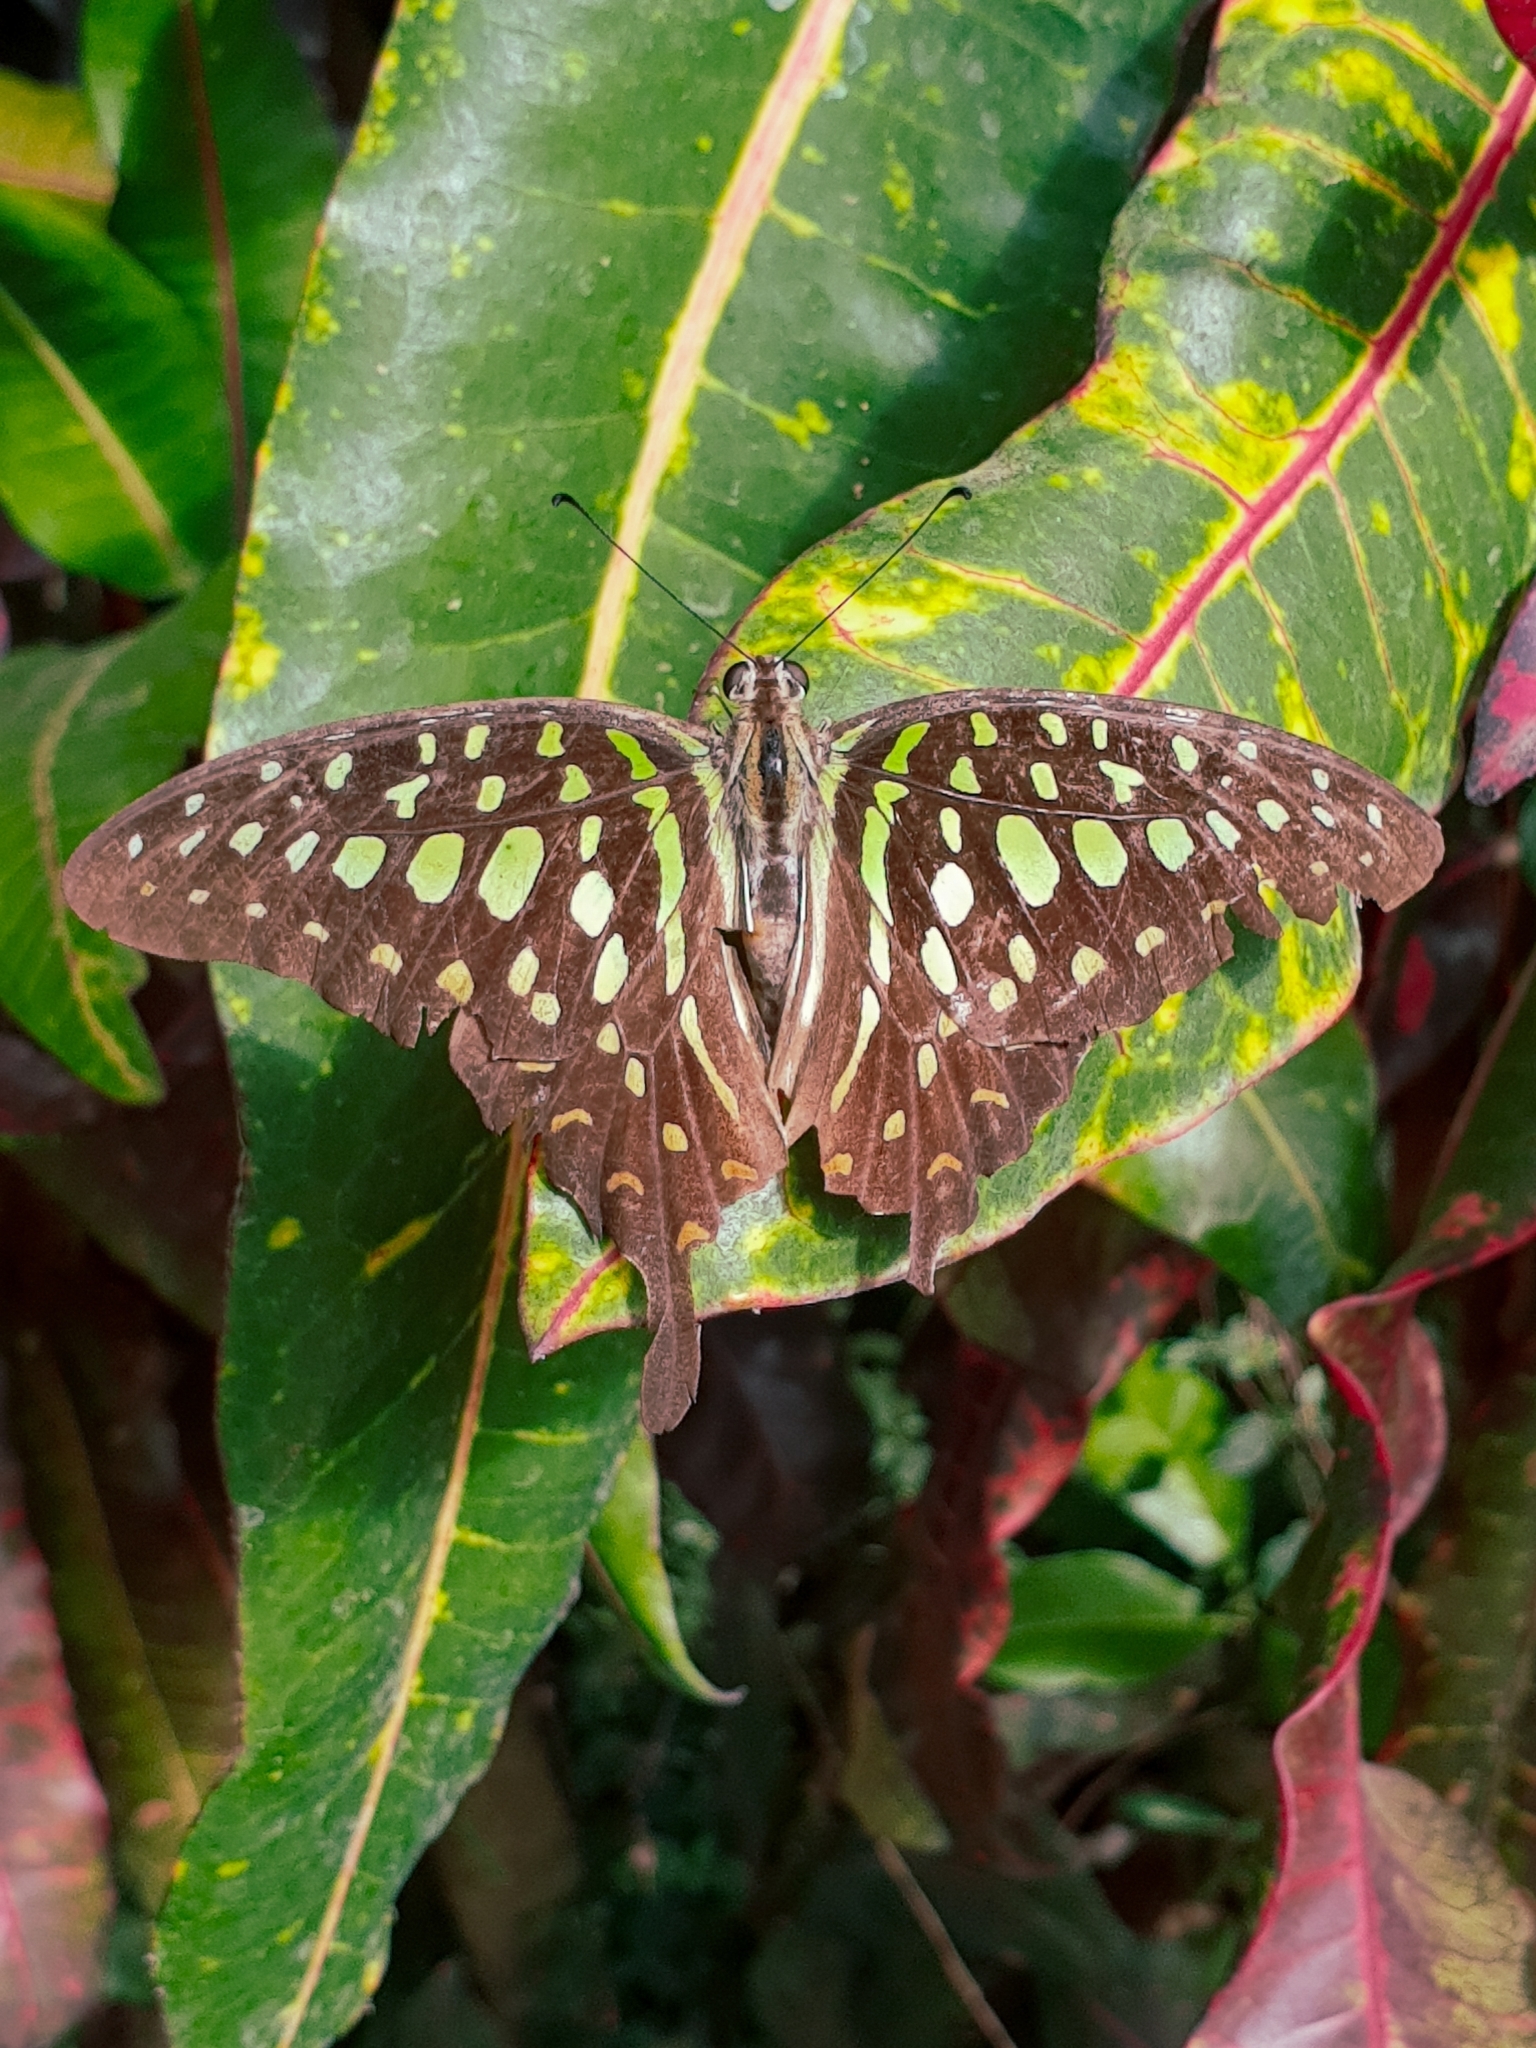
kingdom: Animalia
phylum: Arthropoda
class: Insecta
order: Lepidoptera
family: Papilionidae
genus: Graphium
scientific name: Graphium agamemnon
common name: Tailed jay
